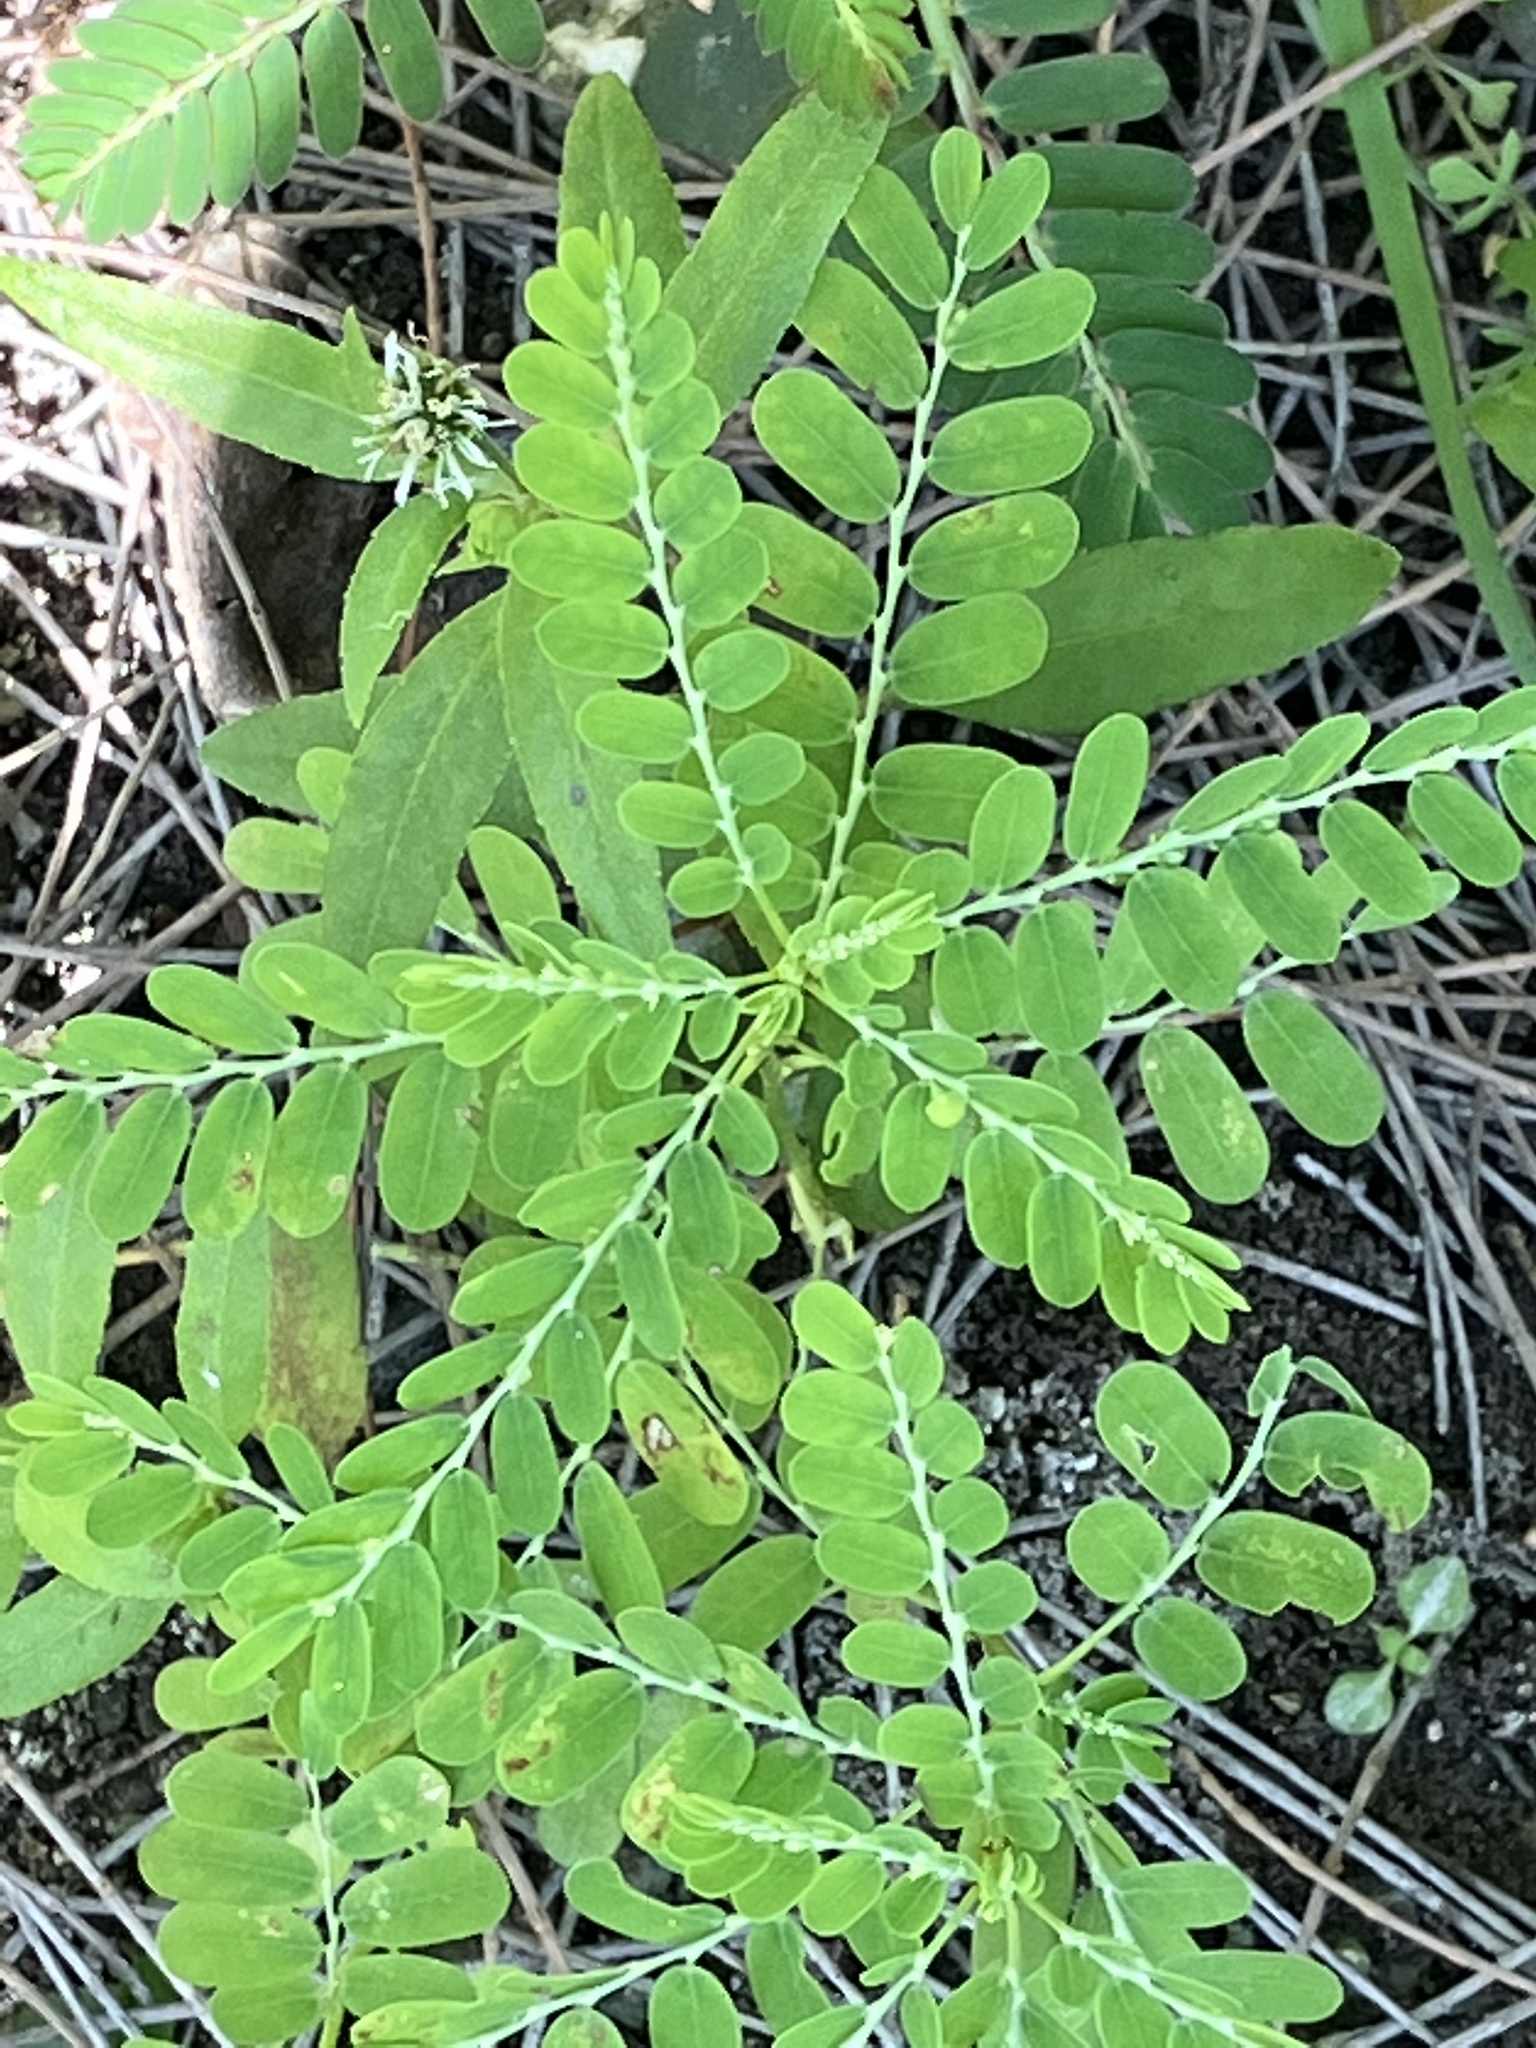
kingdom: Plantae
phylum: Tracheophyta
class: Magnoliopsida
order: Malpighiales
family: Phyllanthaceae
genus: Phyllanthus
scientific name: Phyllanthus amarus
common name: Carry me seed
